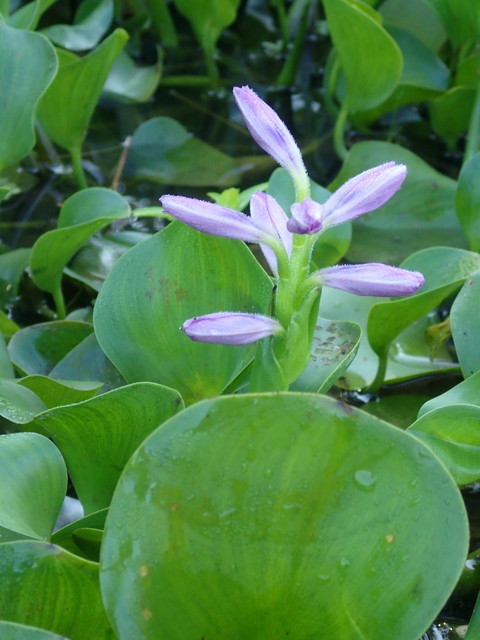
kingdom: Plantae
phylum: Tracheophyta
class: Liliopsida
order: Commelinales
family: Pontederiaceae
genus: Pontederia
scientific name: Pontederia crassipes
